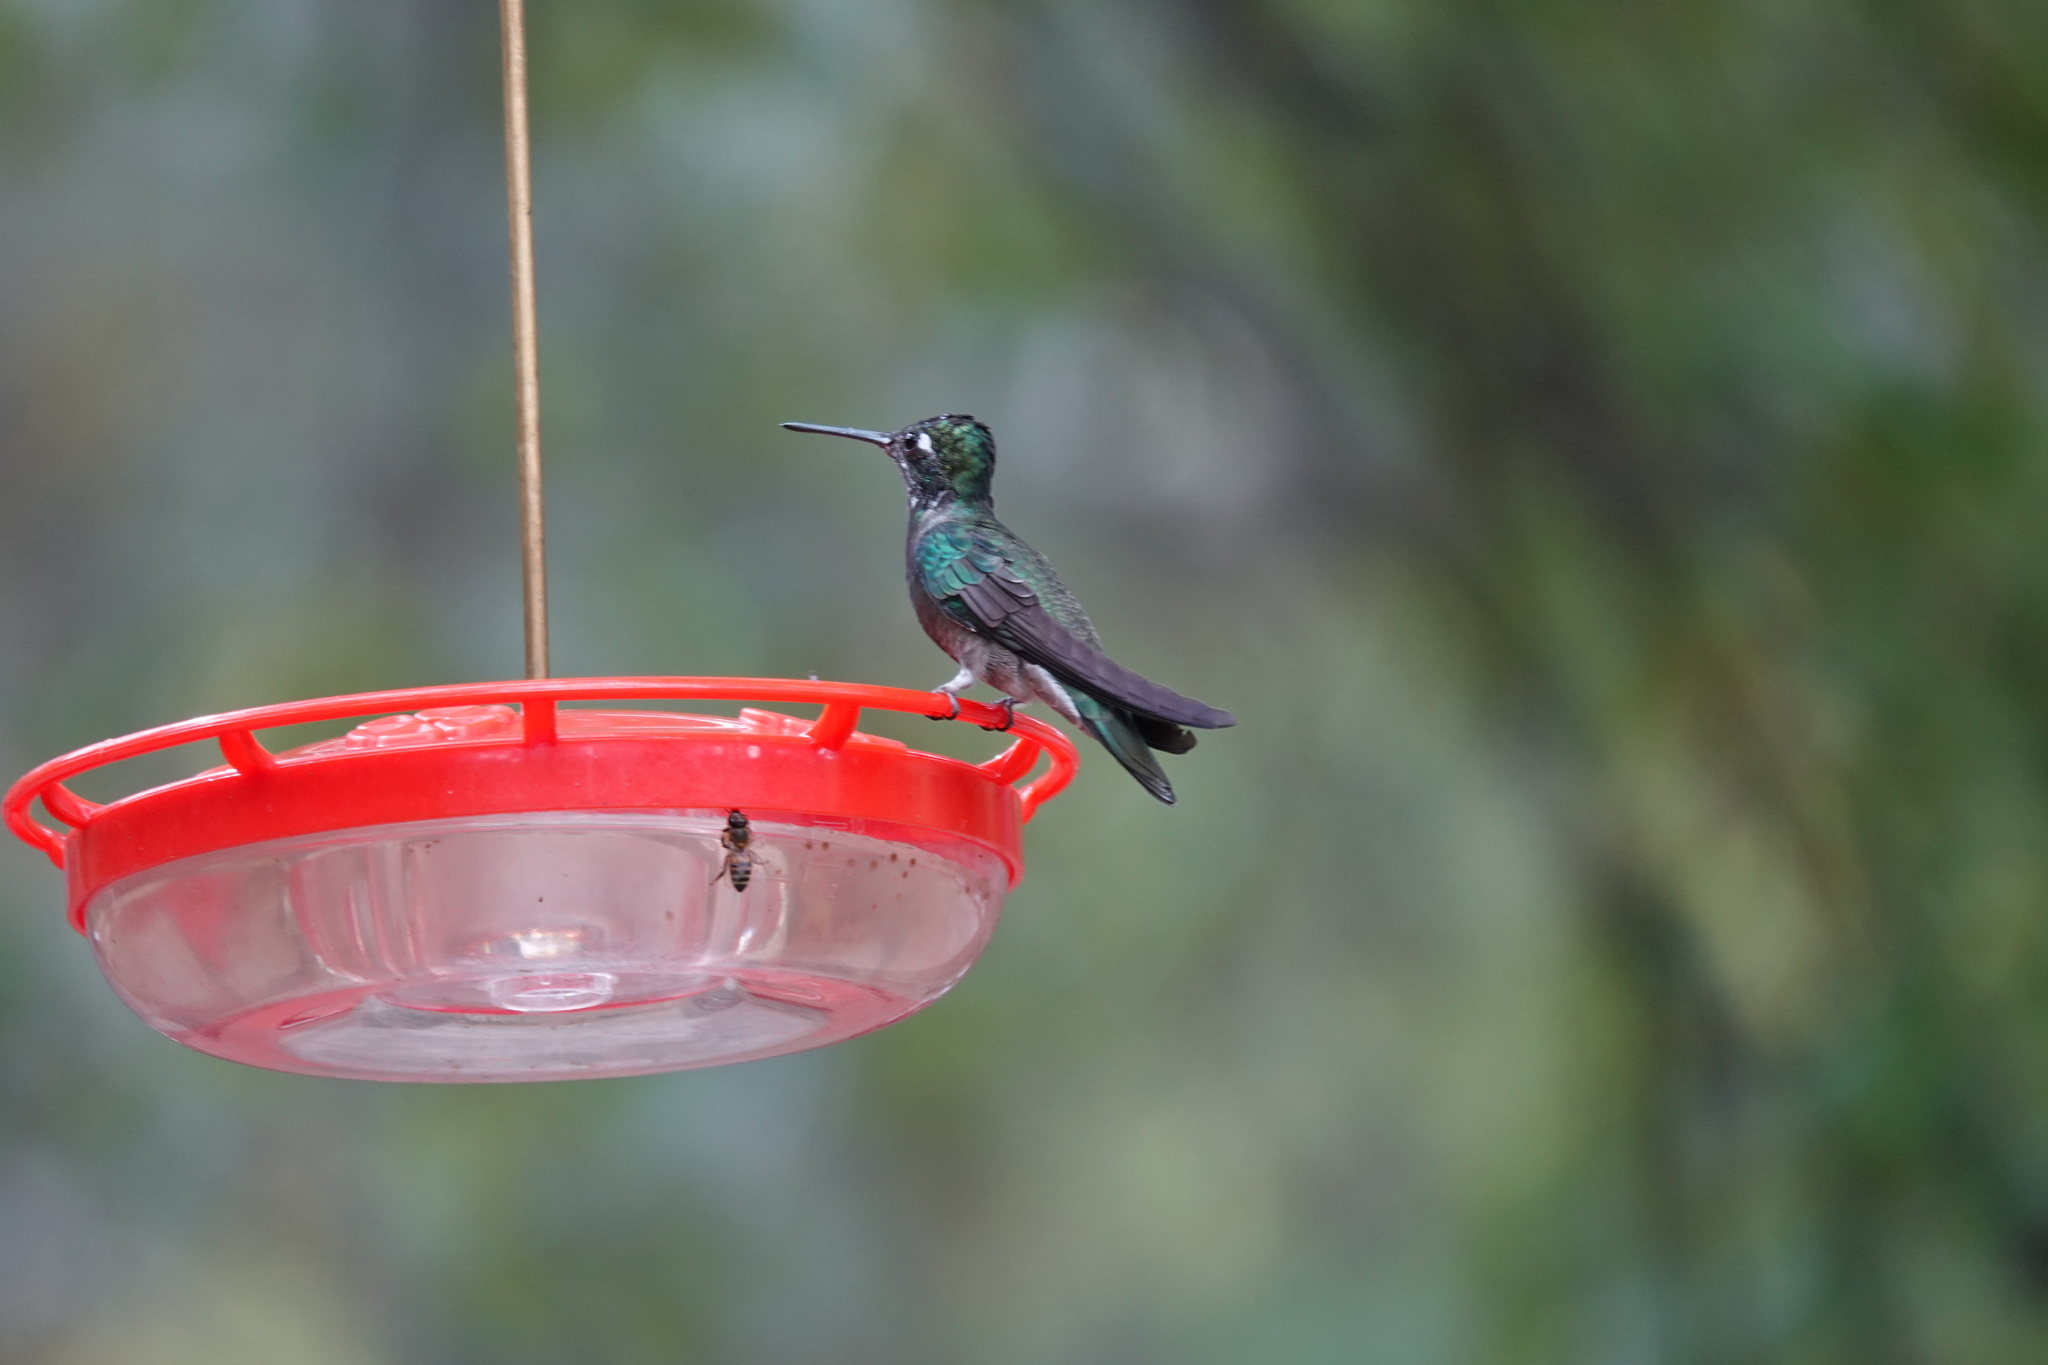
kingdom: Animalia
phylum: Chordata
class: Aves
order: Apodiformes
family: Trochilidae
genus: Eugenes
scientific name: Eugenes fulgens
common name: Magnificent hummingbird
